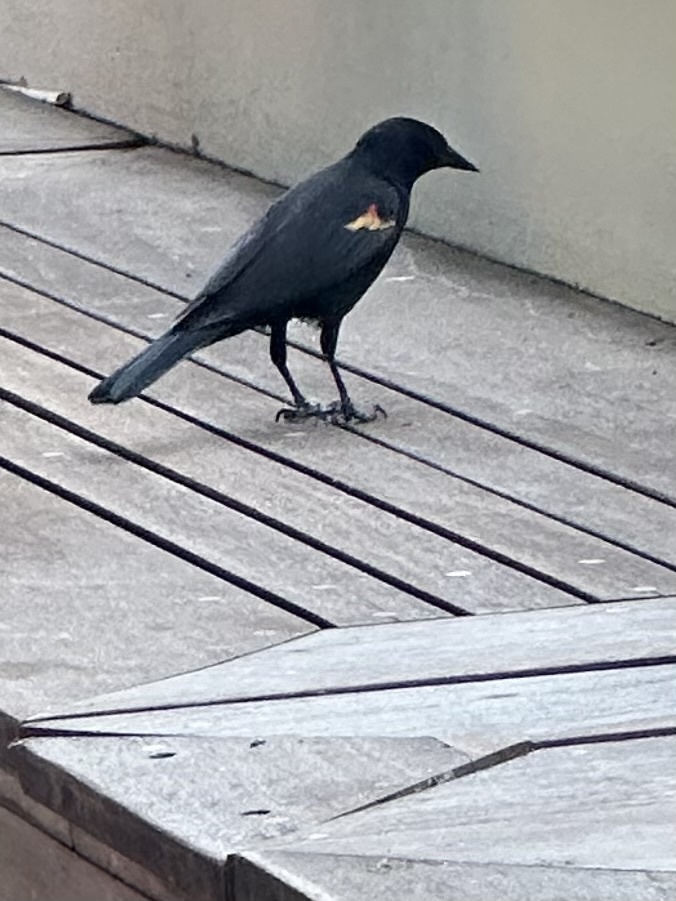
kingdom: Animalia
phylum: Chordata
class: Aves
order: Passeriformes
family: Icteridae
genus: Agelaius
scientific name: Agelaius phoeniceus
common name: Red-winged blackbird
